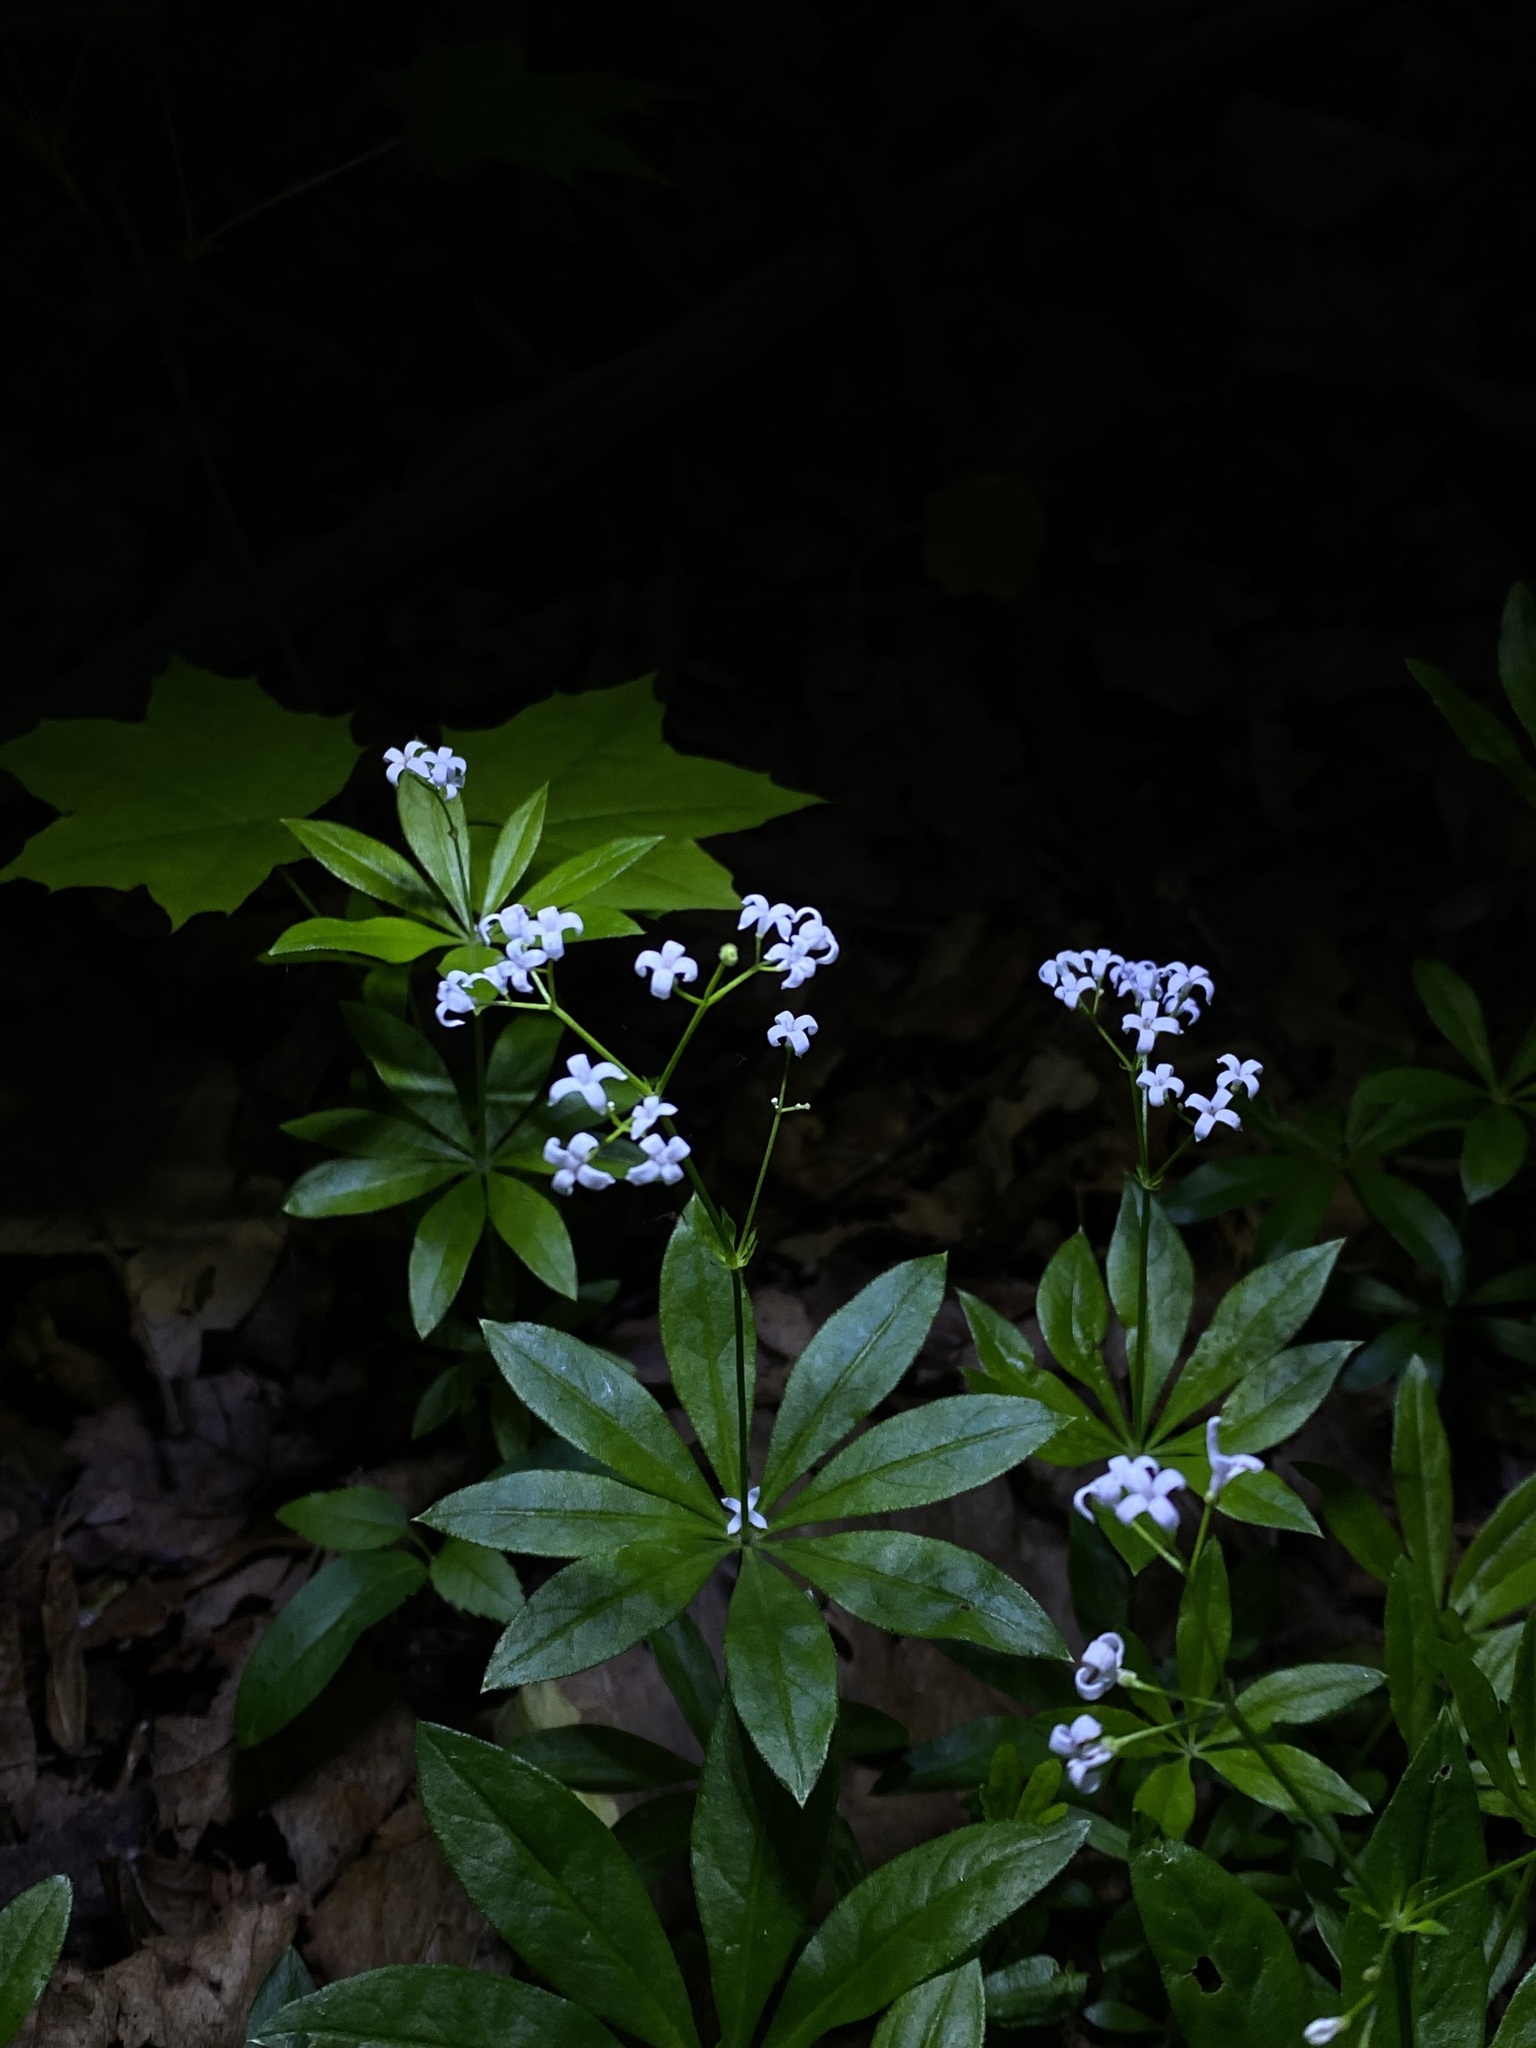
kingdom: Plantae
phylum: Tracheophyta
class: Magnoliopsida
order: Gentianales
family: Rubiaceae
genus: Galium
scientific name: Galium odoratum
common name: Sweet woodruff
